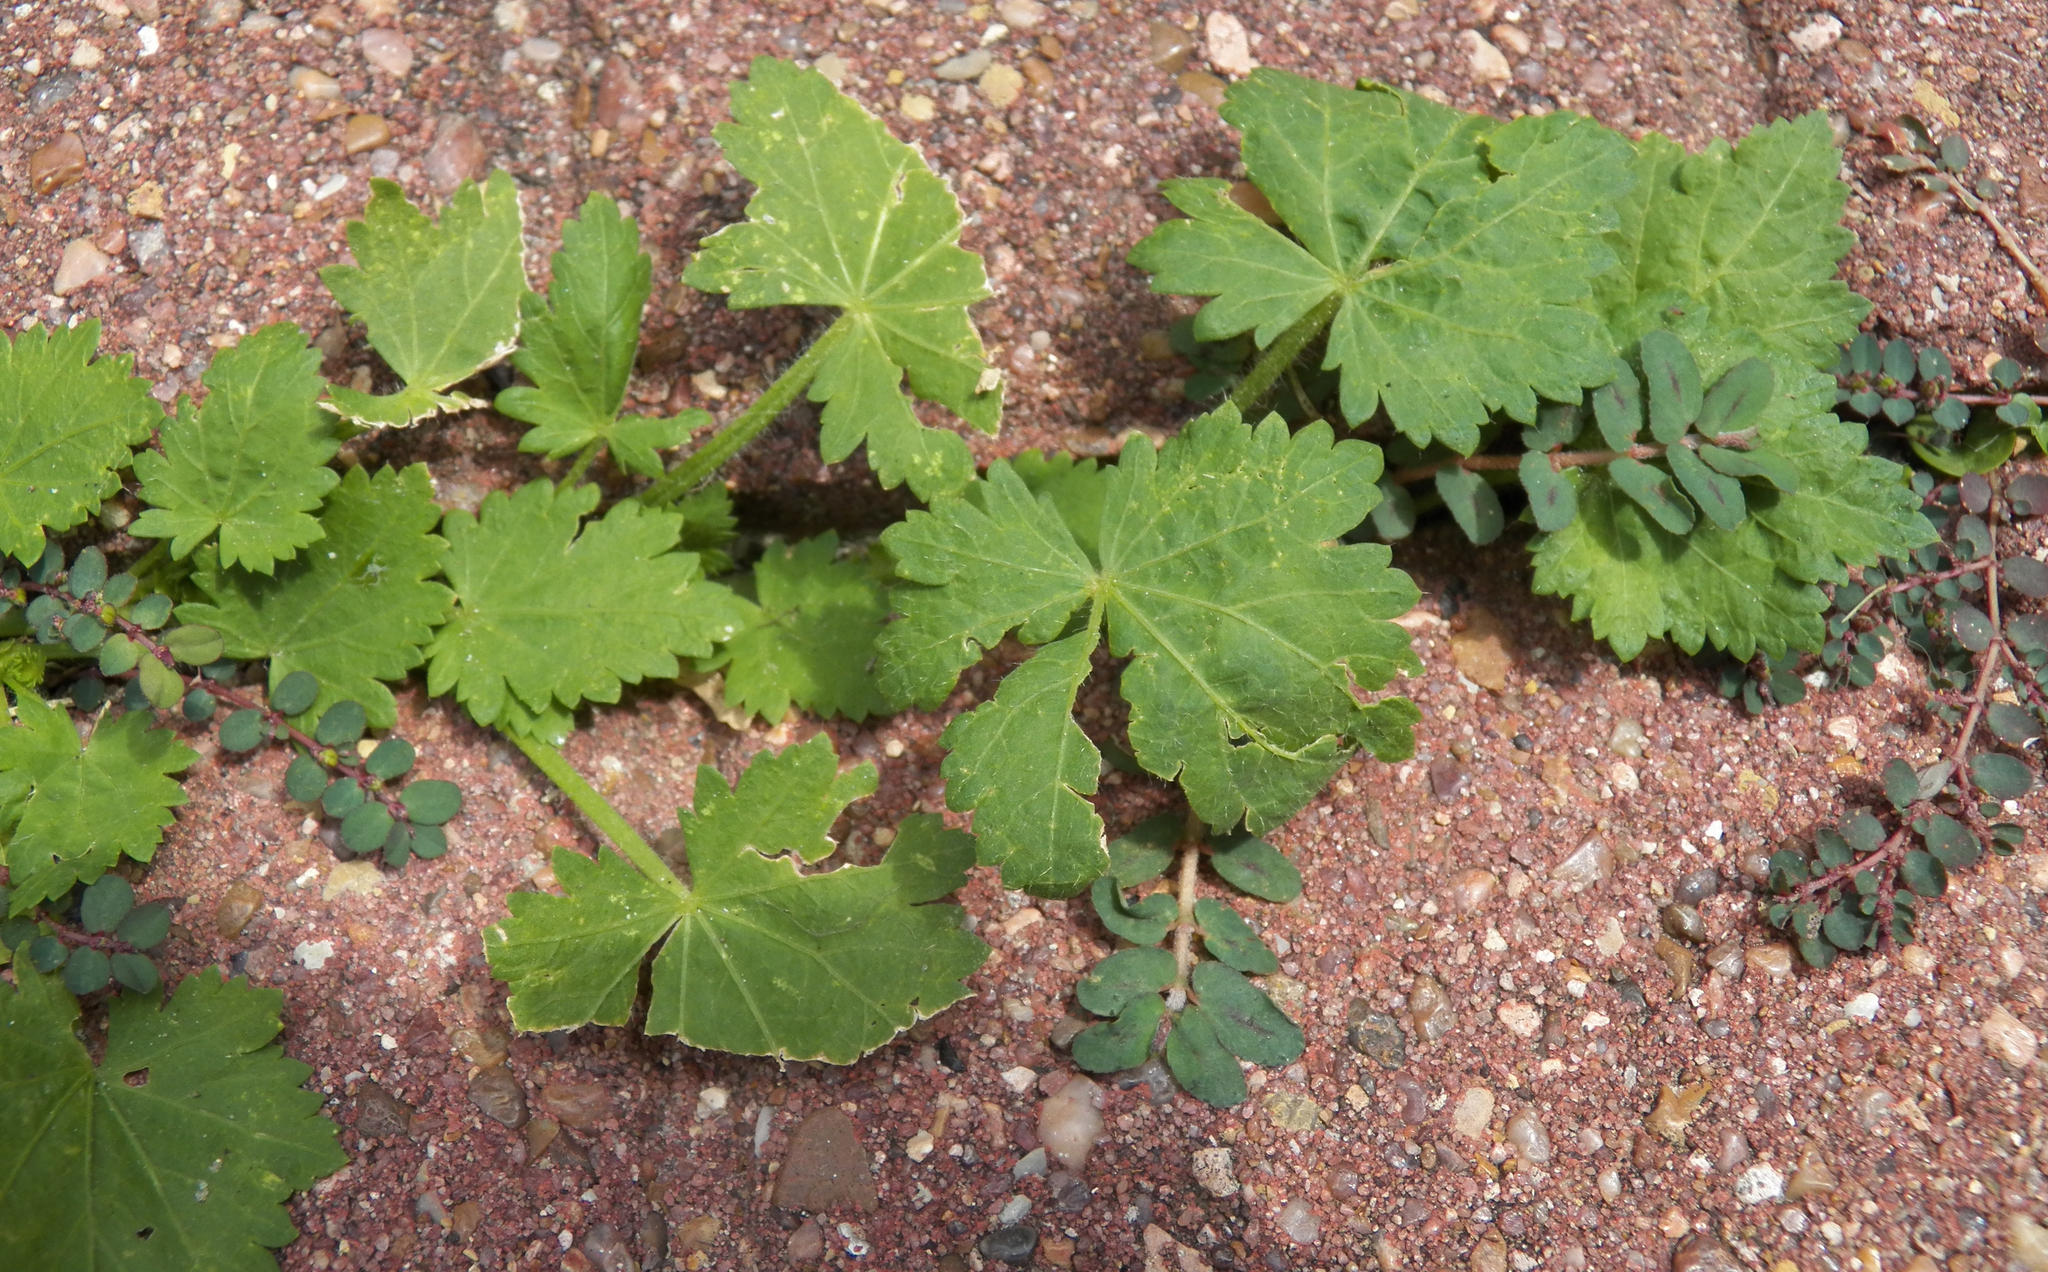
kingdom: Plantae
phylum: Tracheophyta
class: Magnoliopsida
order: Malvales
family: Malvaceae
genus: Modiola
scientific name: Modiola caroliniana
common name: Carolina bristlemallow
